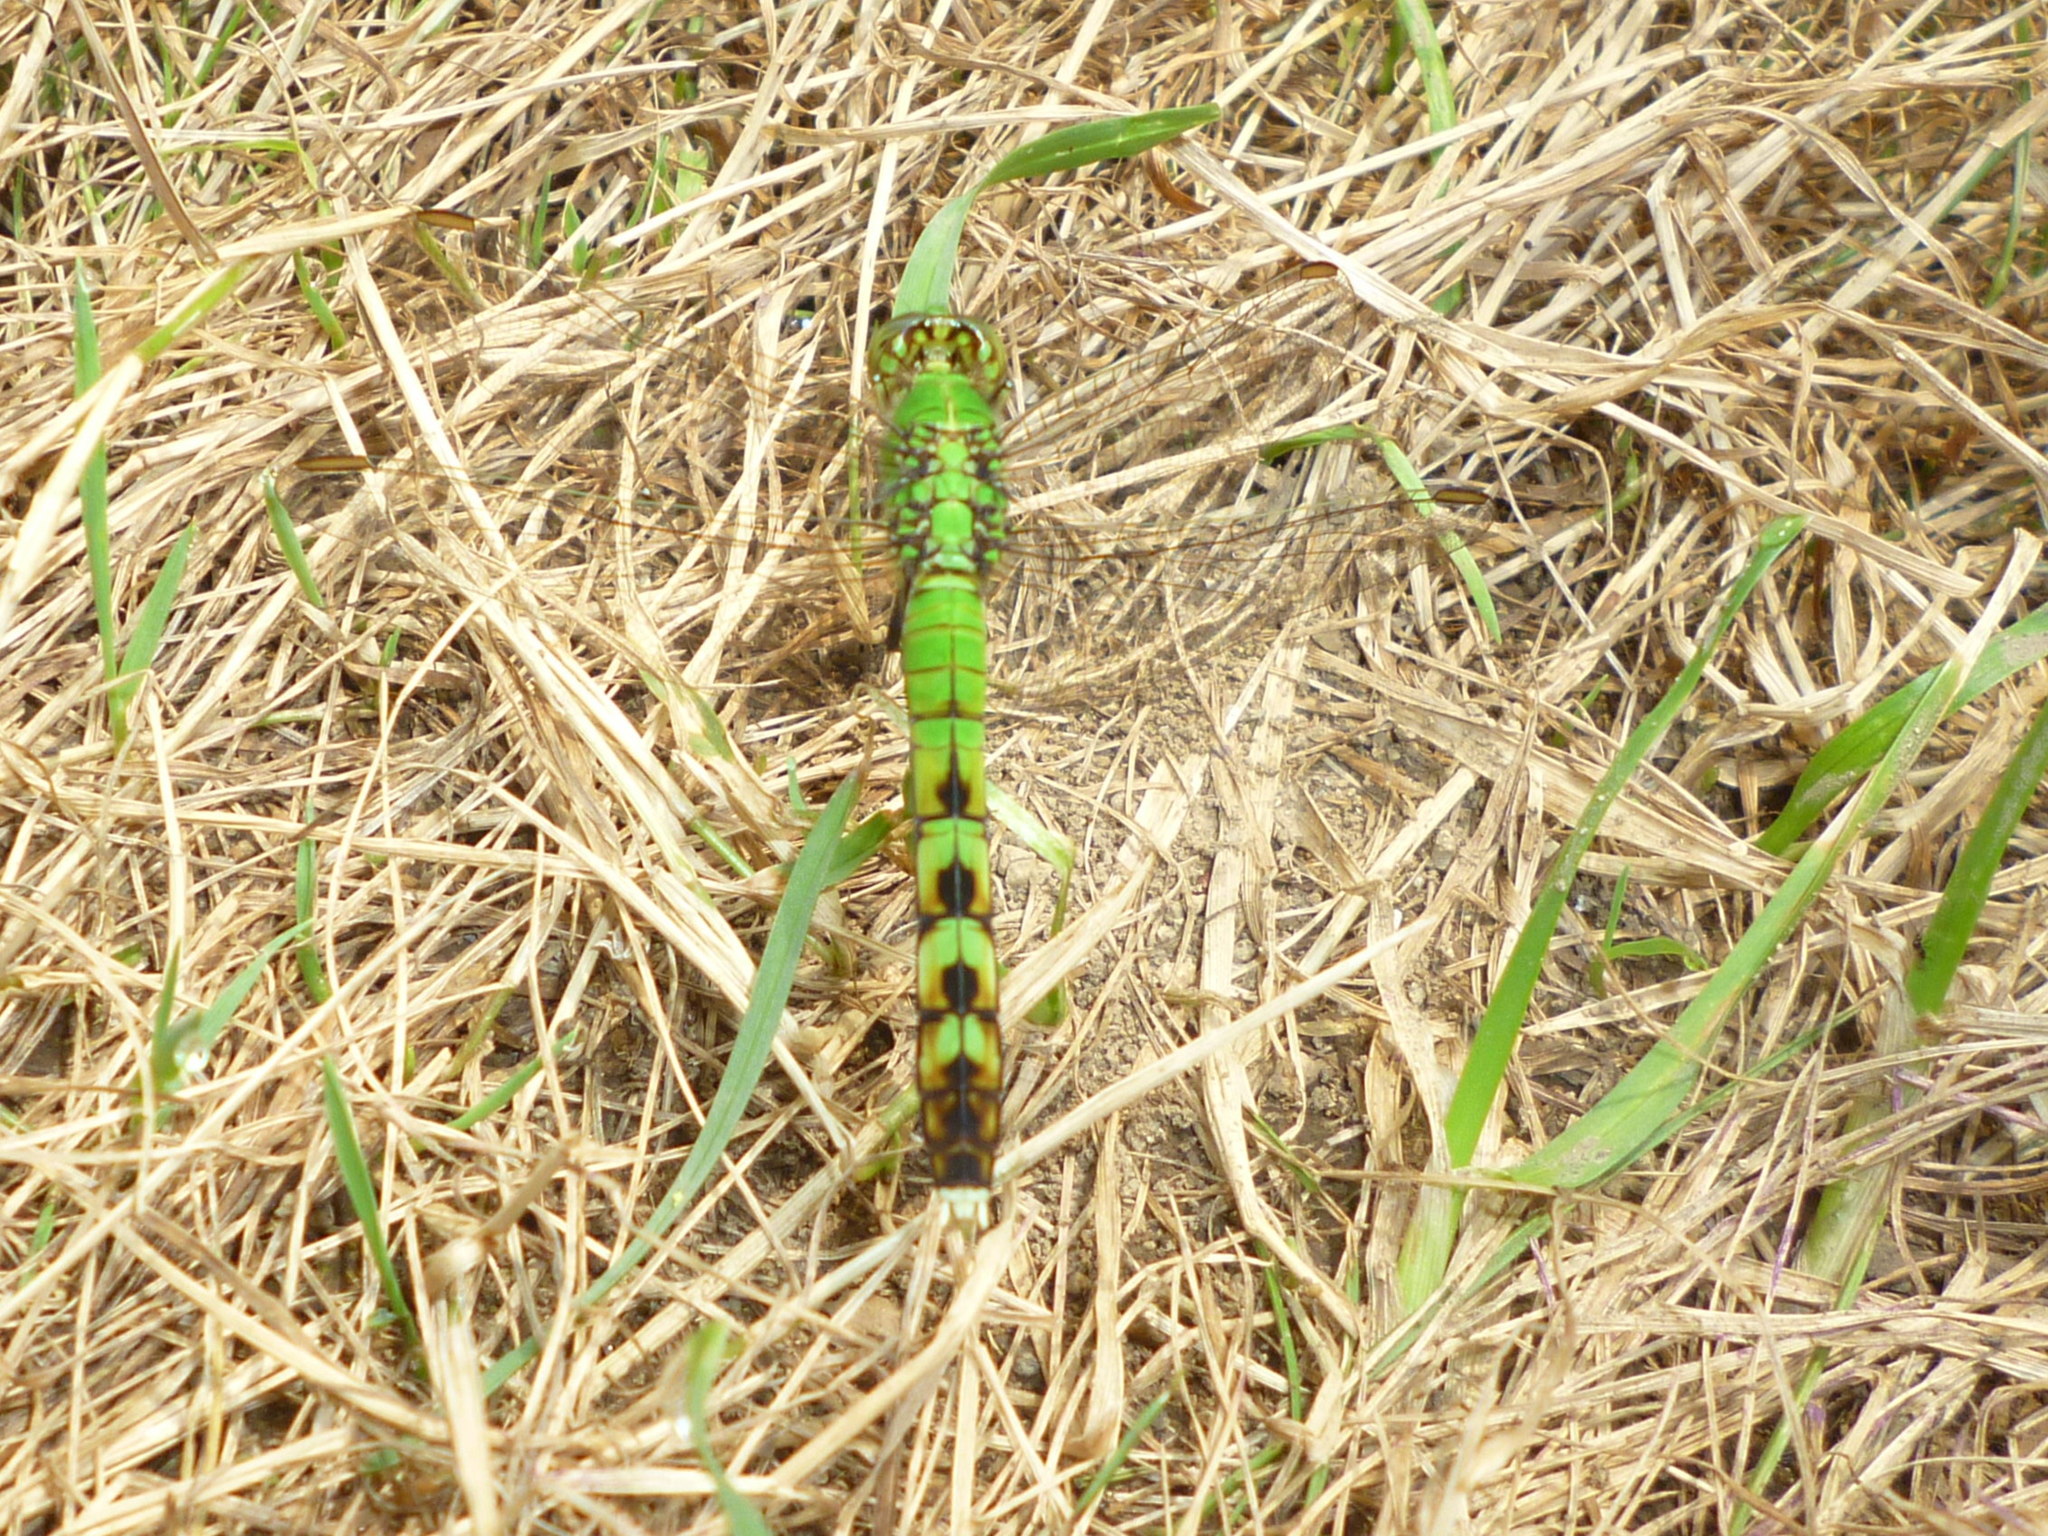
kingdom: Animalia
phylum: Arthropoda
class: Insecta
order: Odonata
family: Libellulidae
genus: Erythemis
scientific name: Erythemis simplicicollis
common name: Eastern pondhawk
